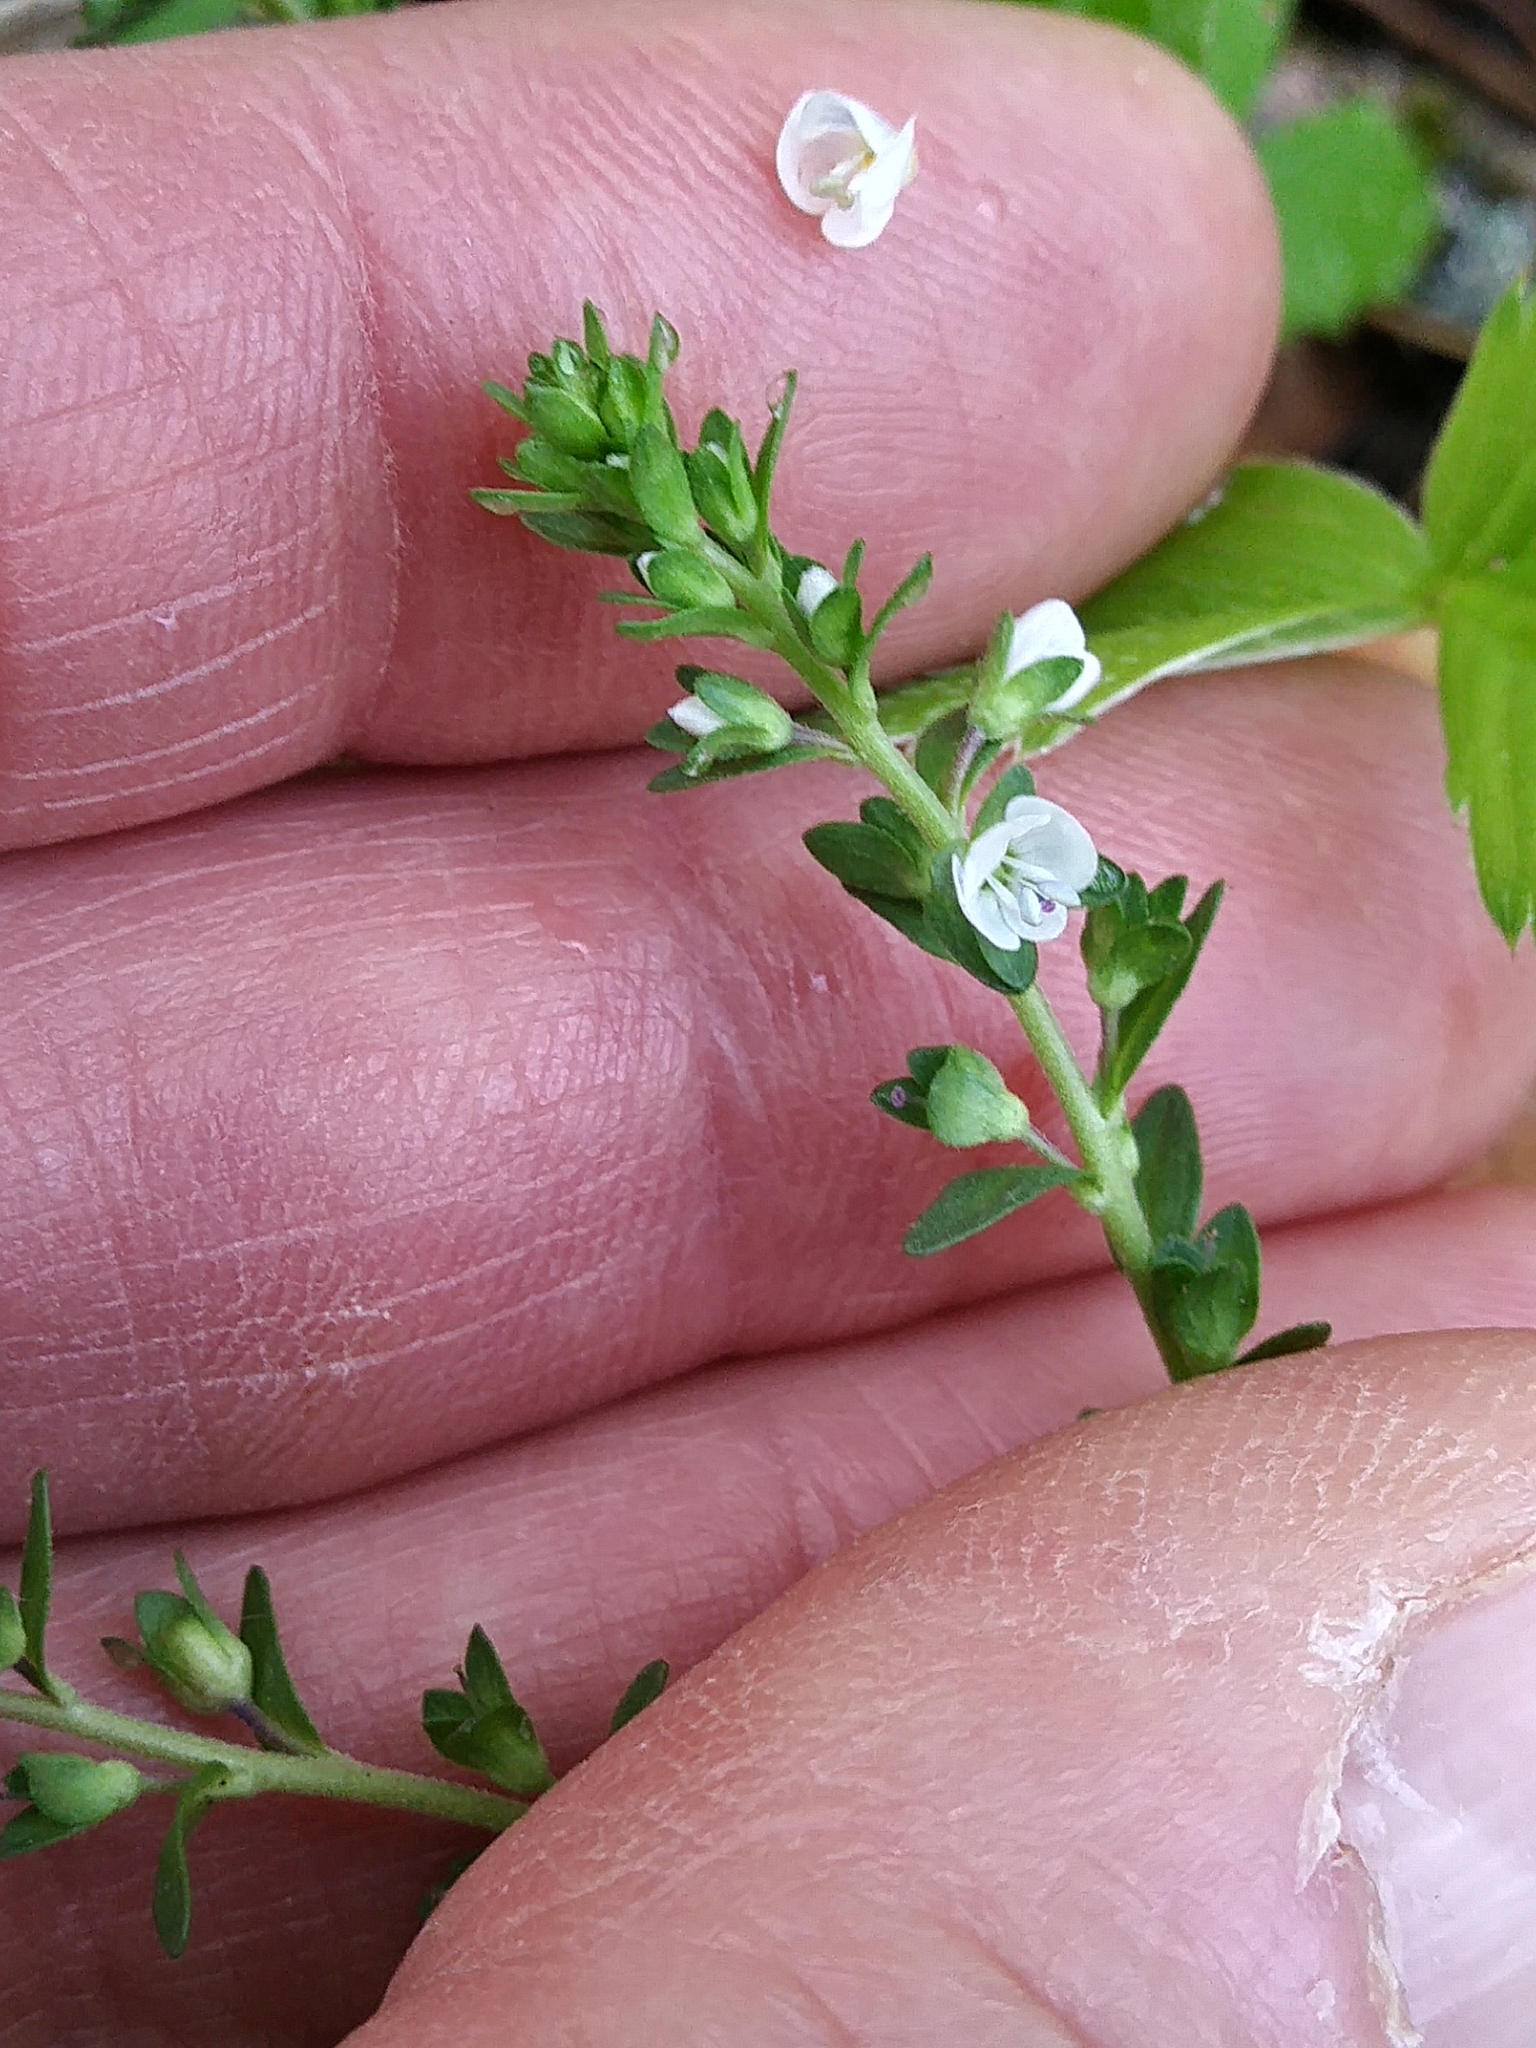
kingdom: Plantae
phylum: Tracheophyta
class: Magnoliopsida
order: Lamiales
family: Plantaginaceae
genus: Veronica
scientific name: Veronica serpyllifolia
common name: Thyme-leaved speedwell
